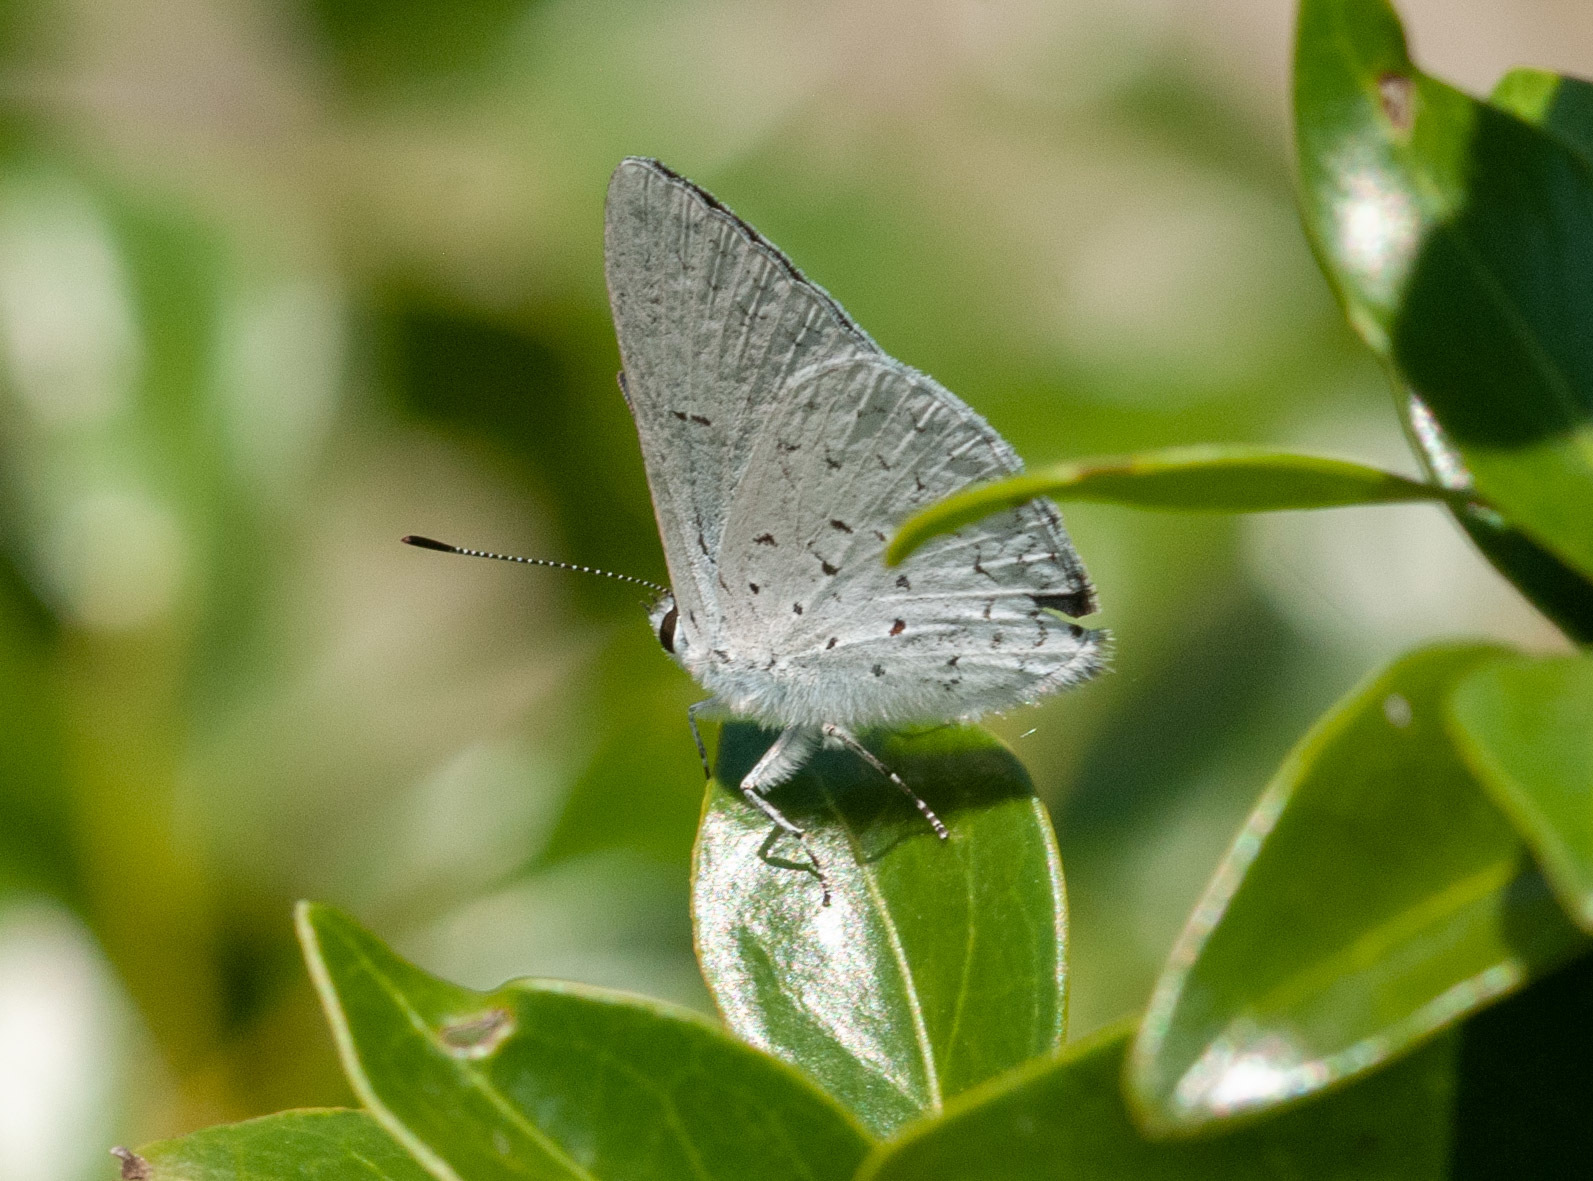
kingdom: Animalia
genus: Eirmocides
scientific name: Eirmocides
